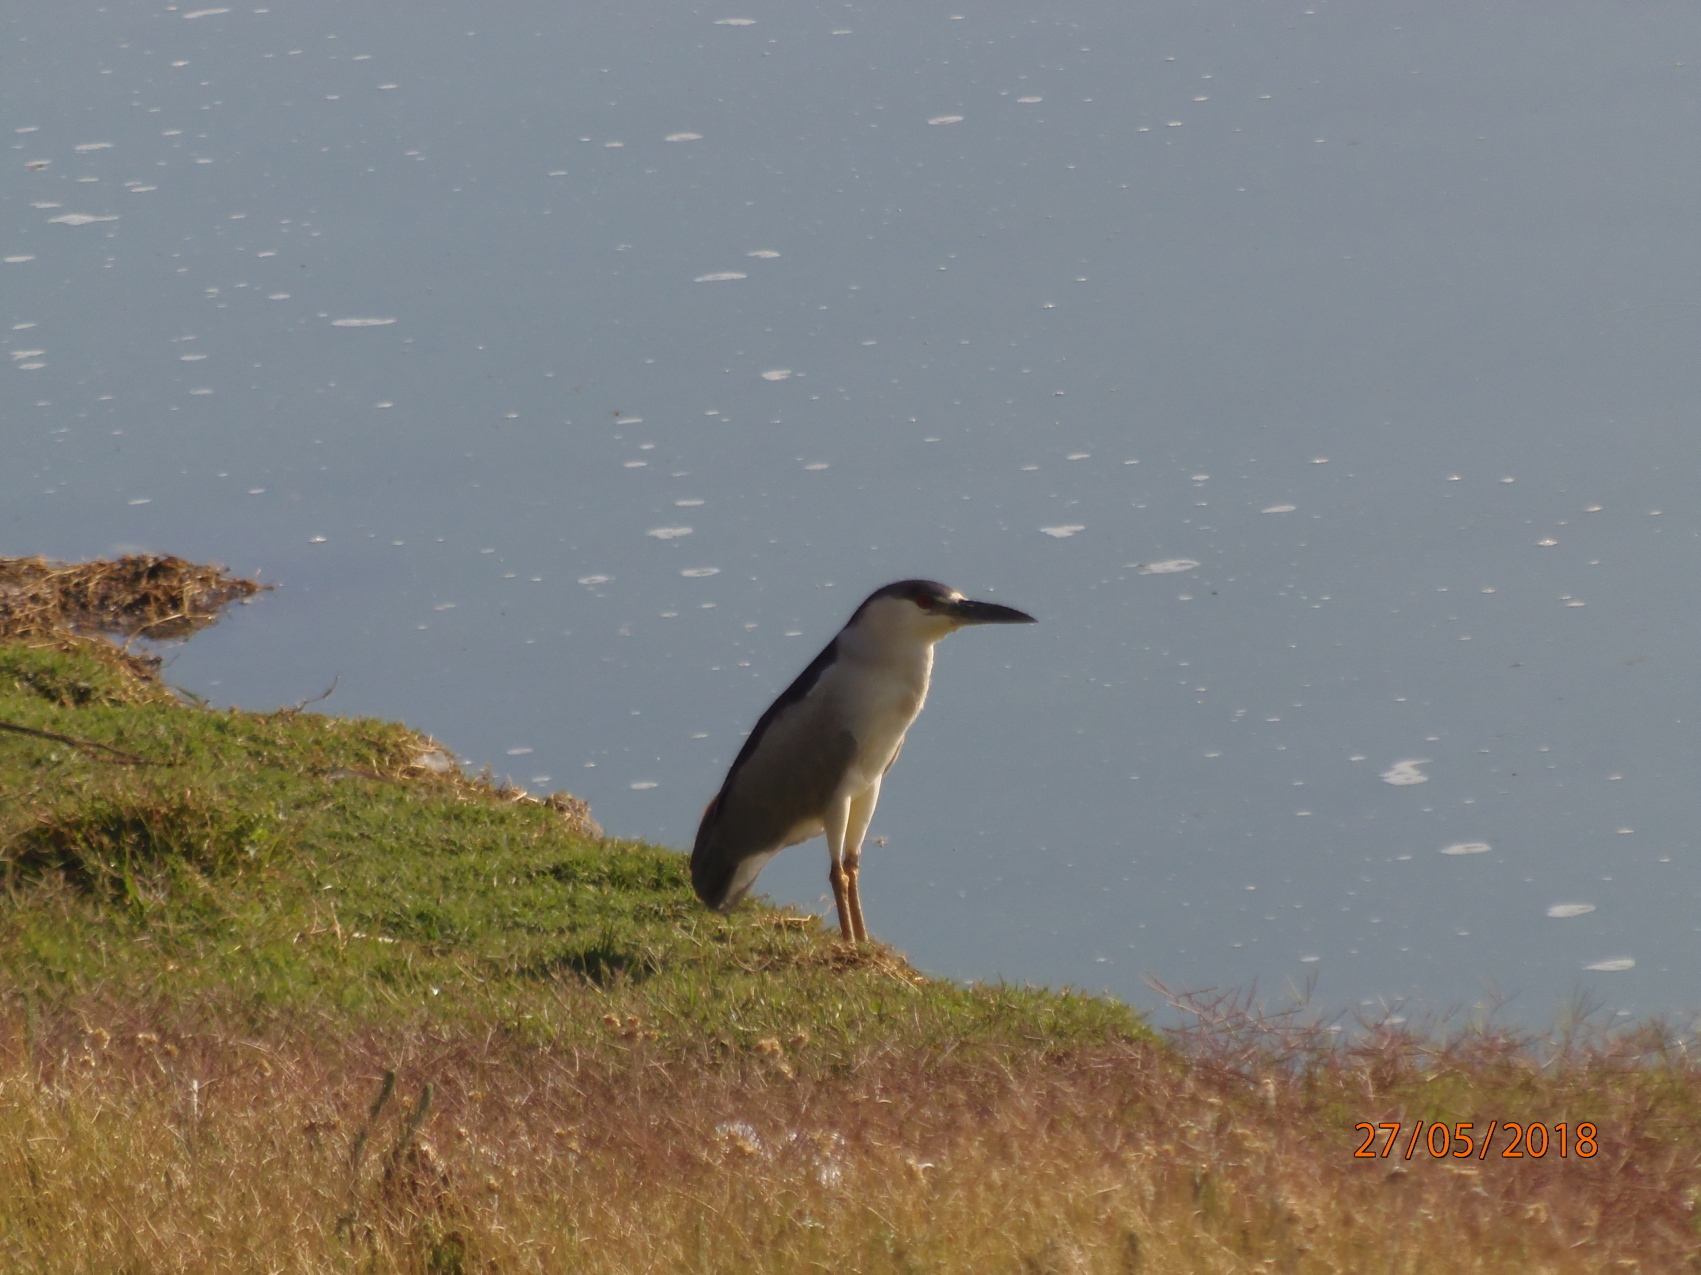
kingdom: Animalia
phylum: Chordata
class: Aves
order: Pelecaniformes
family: Ardeidae
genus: Nycticorax
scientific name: Nycticorax nycticorax
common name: Black-crowned night heron
